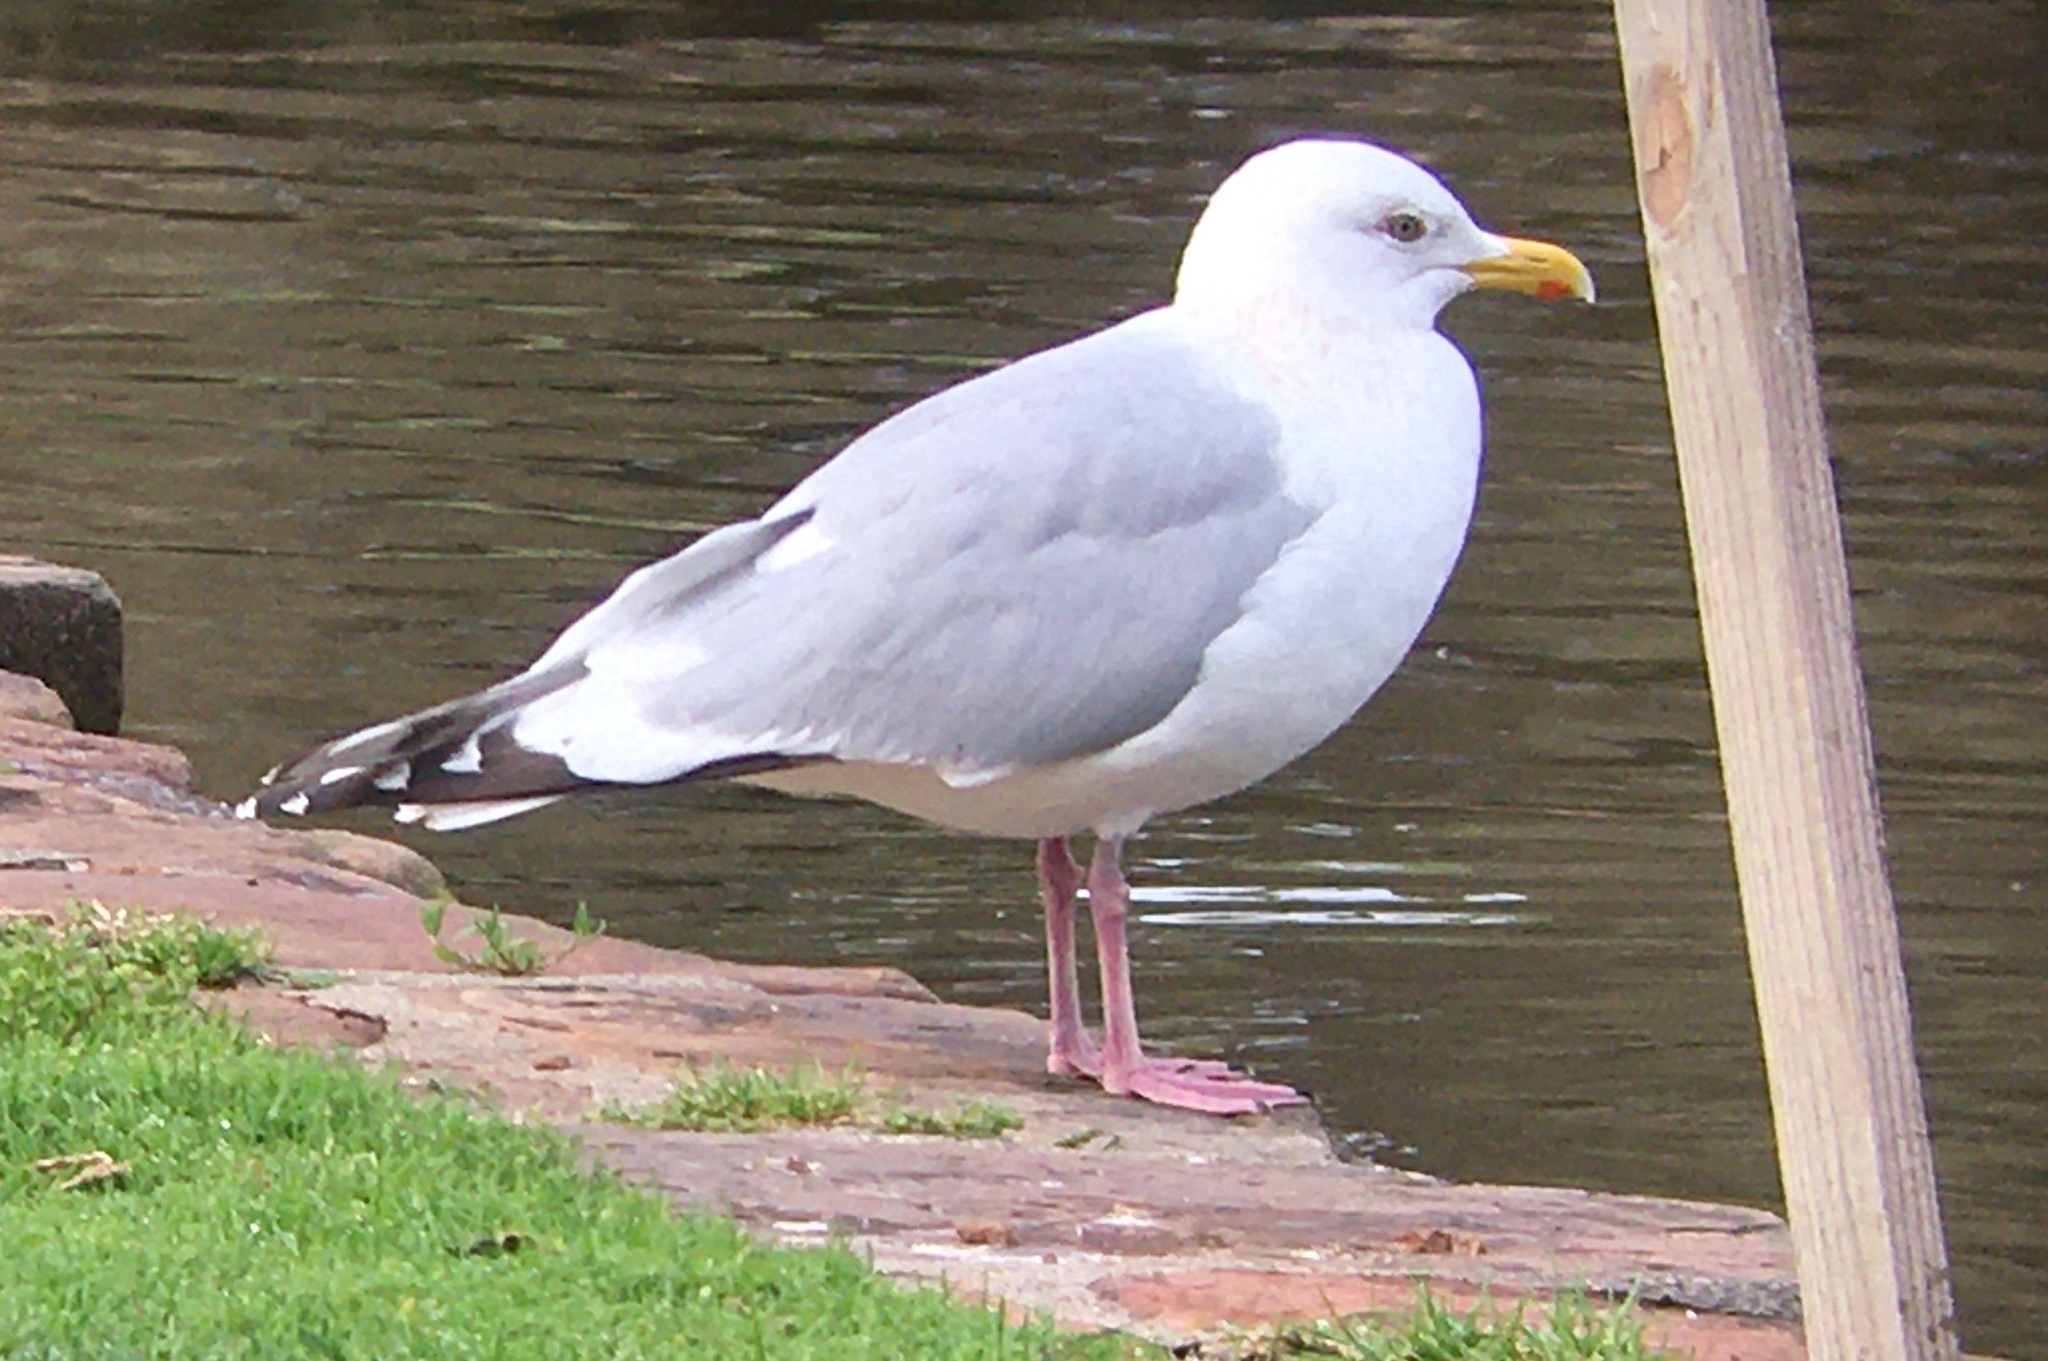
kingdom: Animalia
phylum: Chordata
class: Aves
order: Charadriiformes
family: Laridae
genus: Larus
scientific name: Larus glaucoides
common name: Iceland gull
